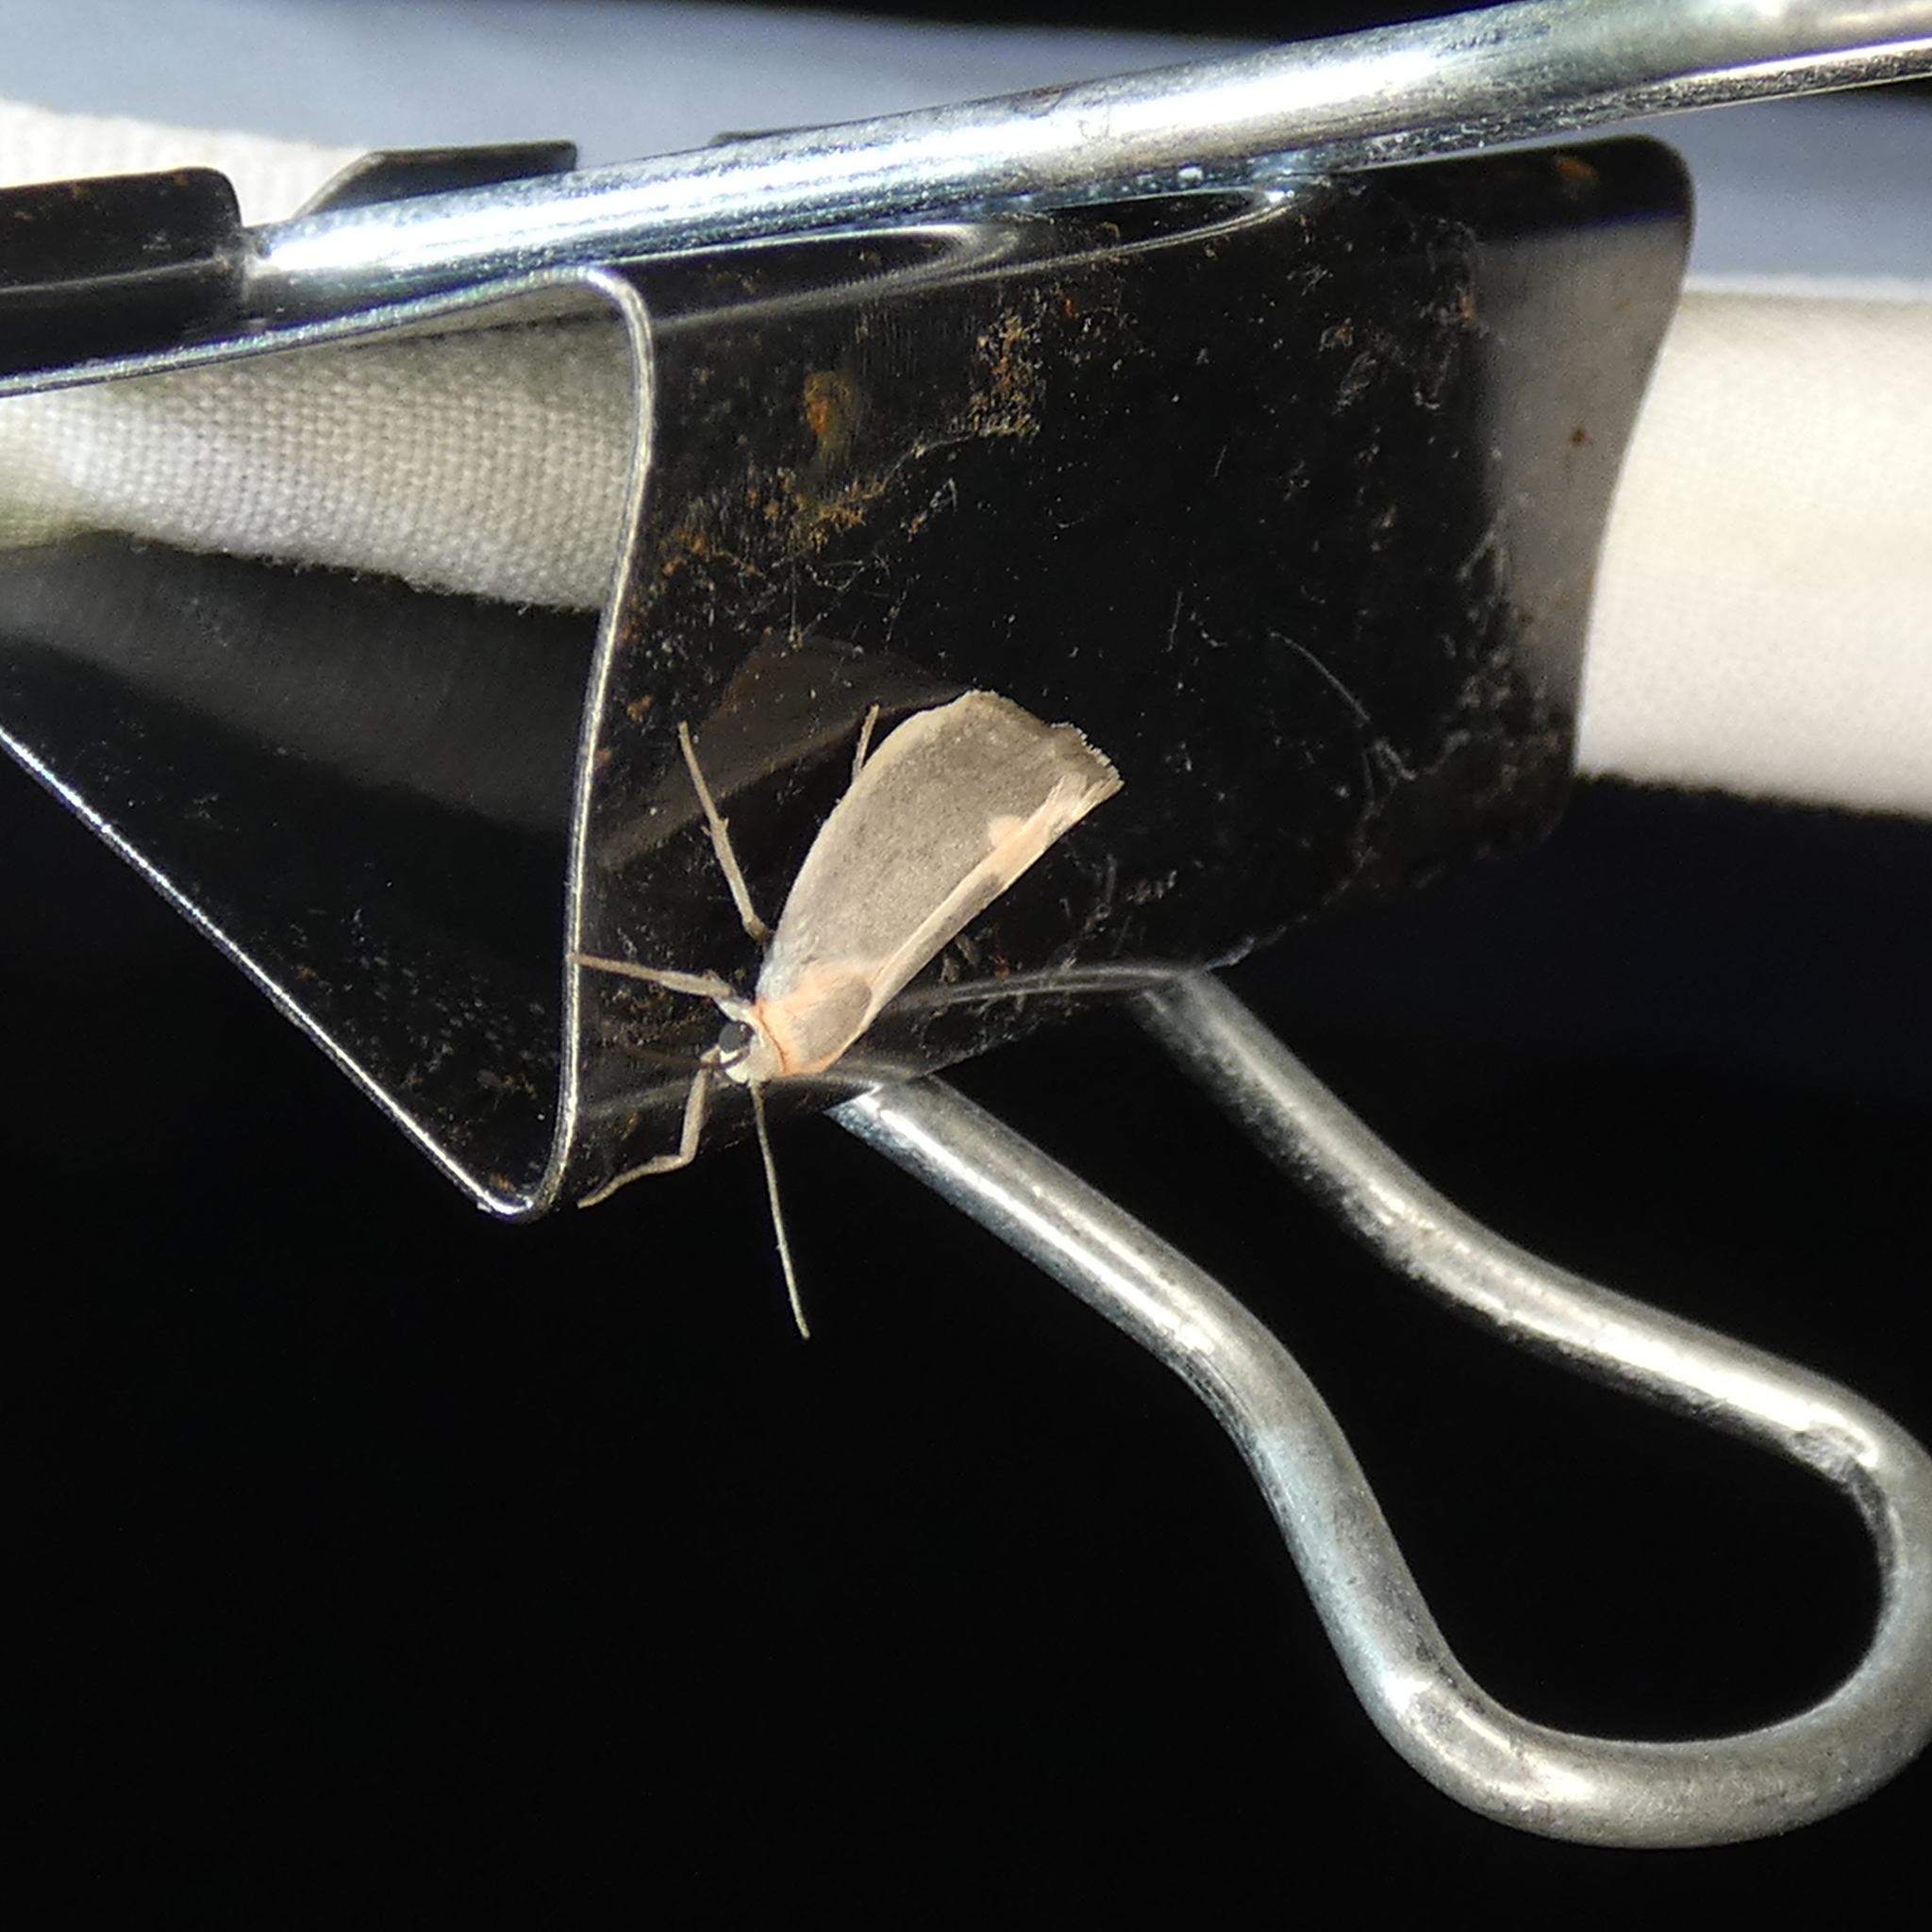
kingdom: Animalia
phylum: Arthropoda
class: Insecta
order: Lepidoptera
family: Erebidae
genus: Cisthene
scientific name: Cisthene plumbea
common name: Lead colored lichen moth
